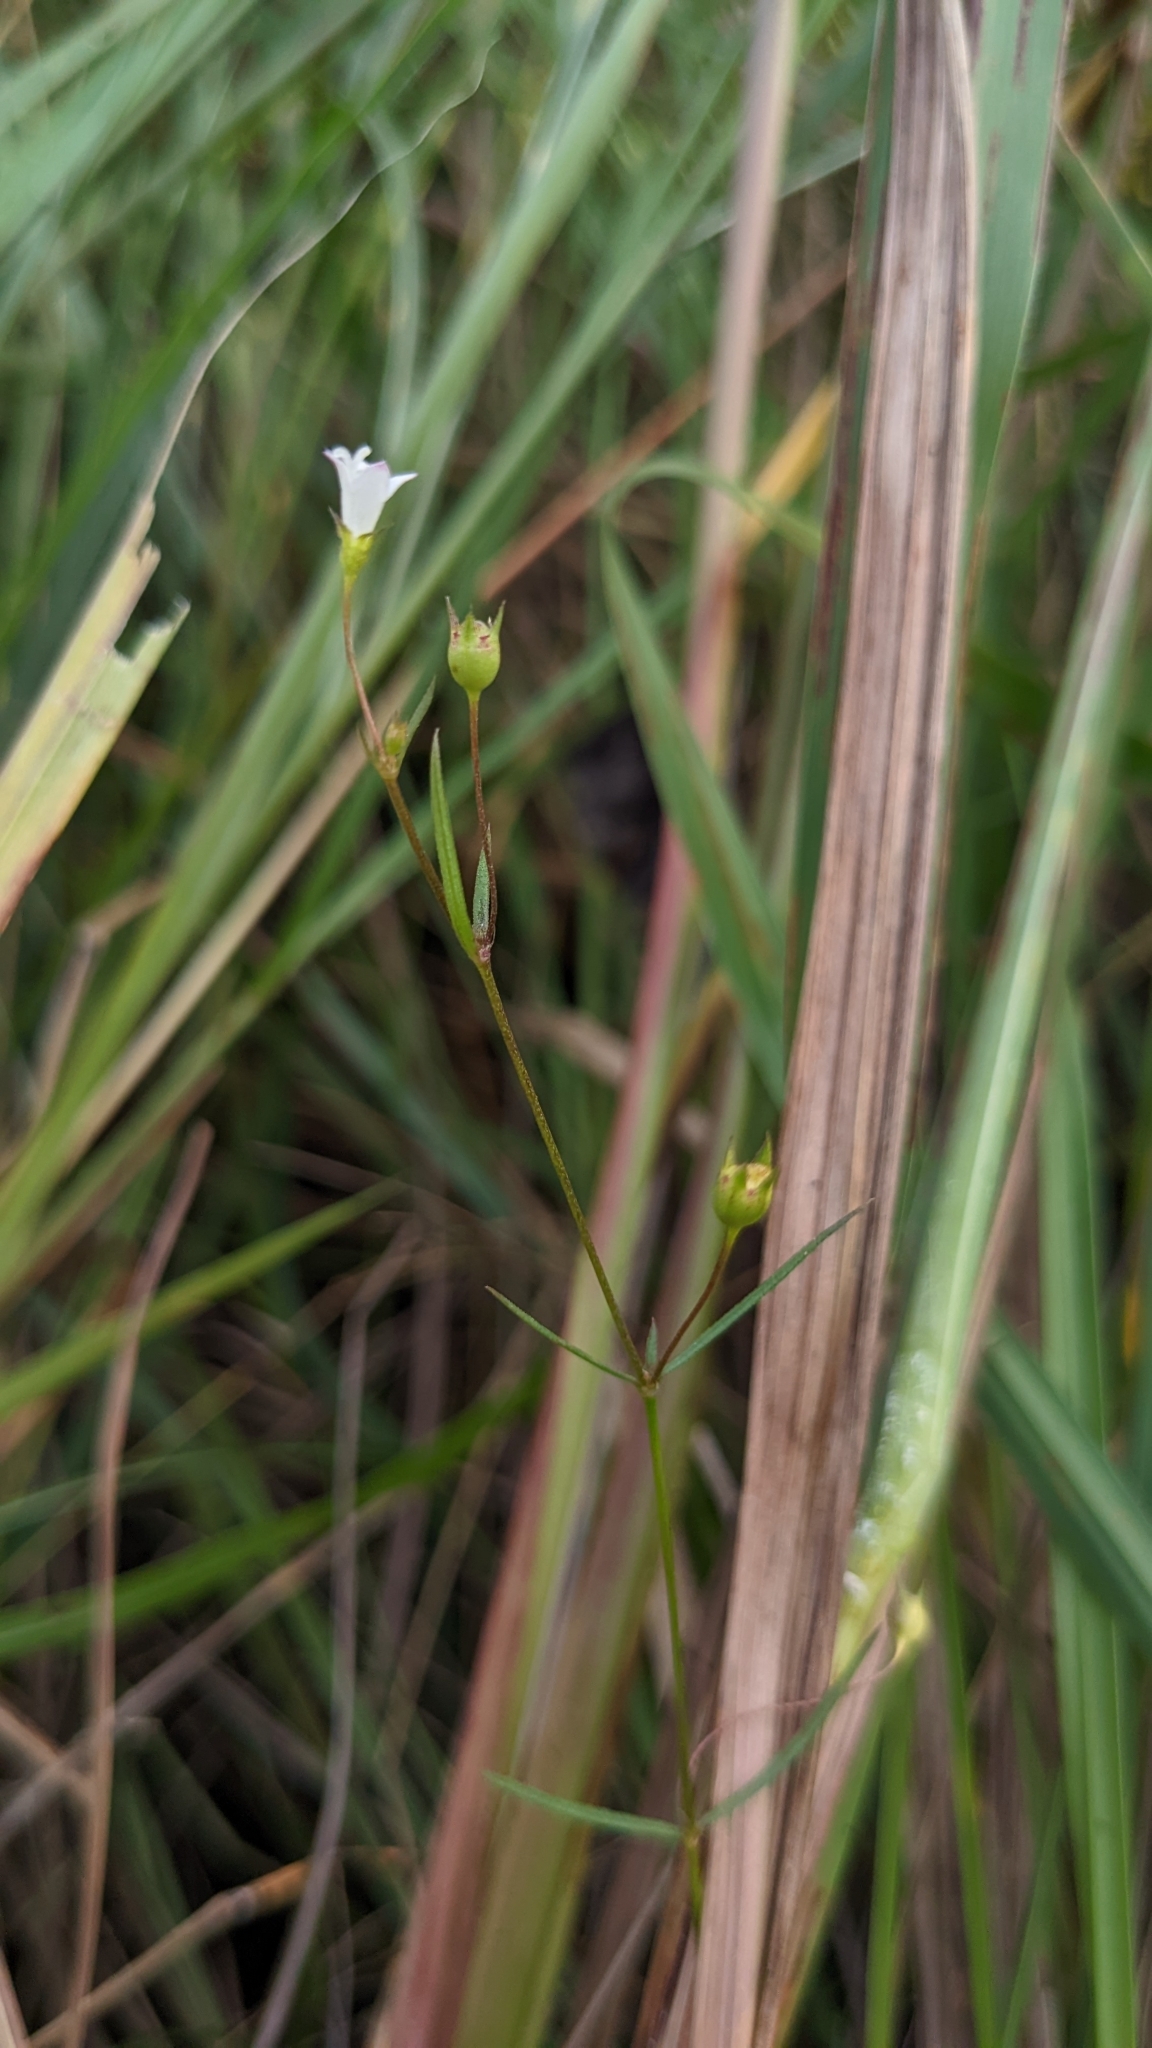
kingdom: Plantae
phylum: Tracheophyta
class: Magnoliopsida
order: Gentianales
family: Rubiaceae
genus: Scleromitrion
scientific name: Scleromitrion koanum
